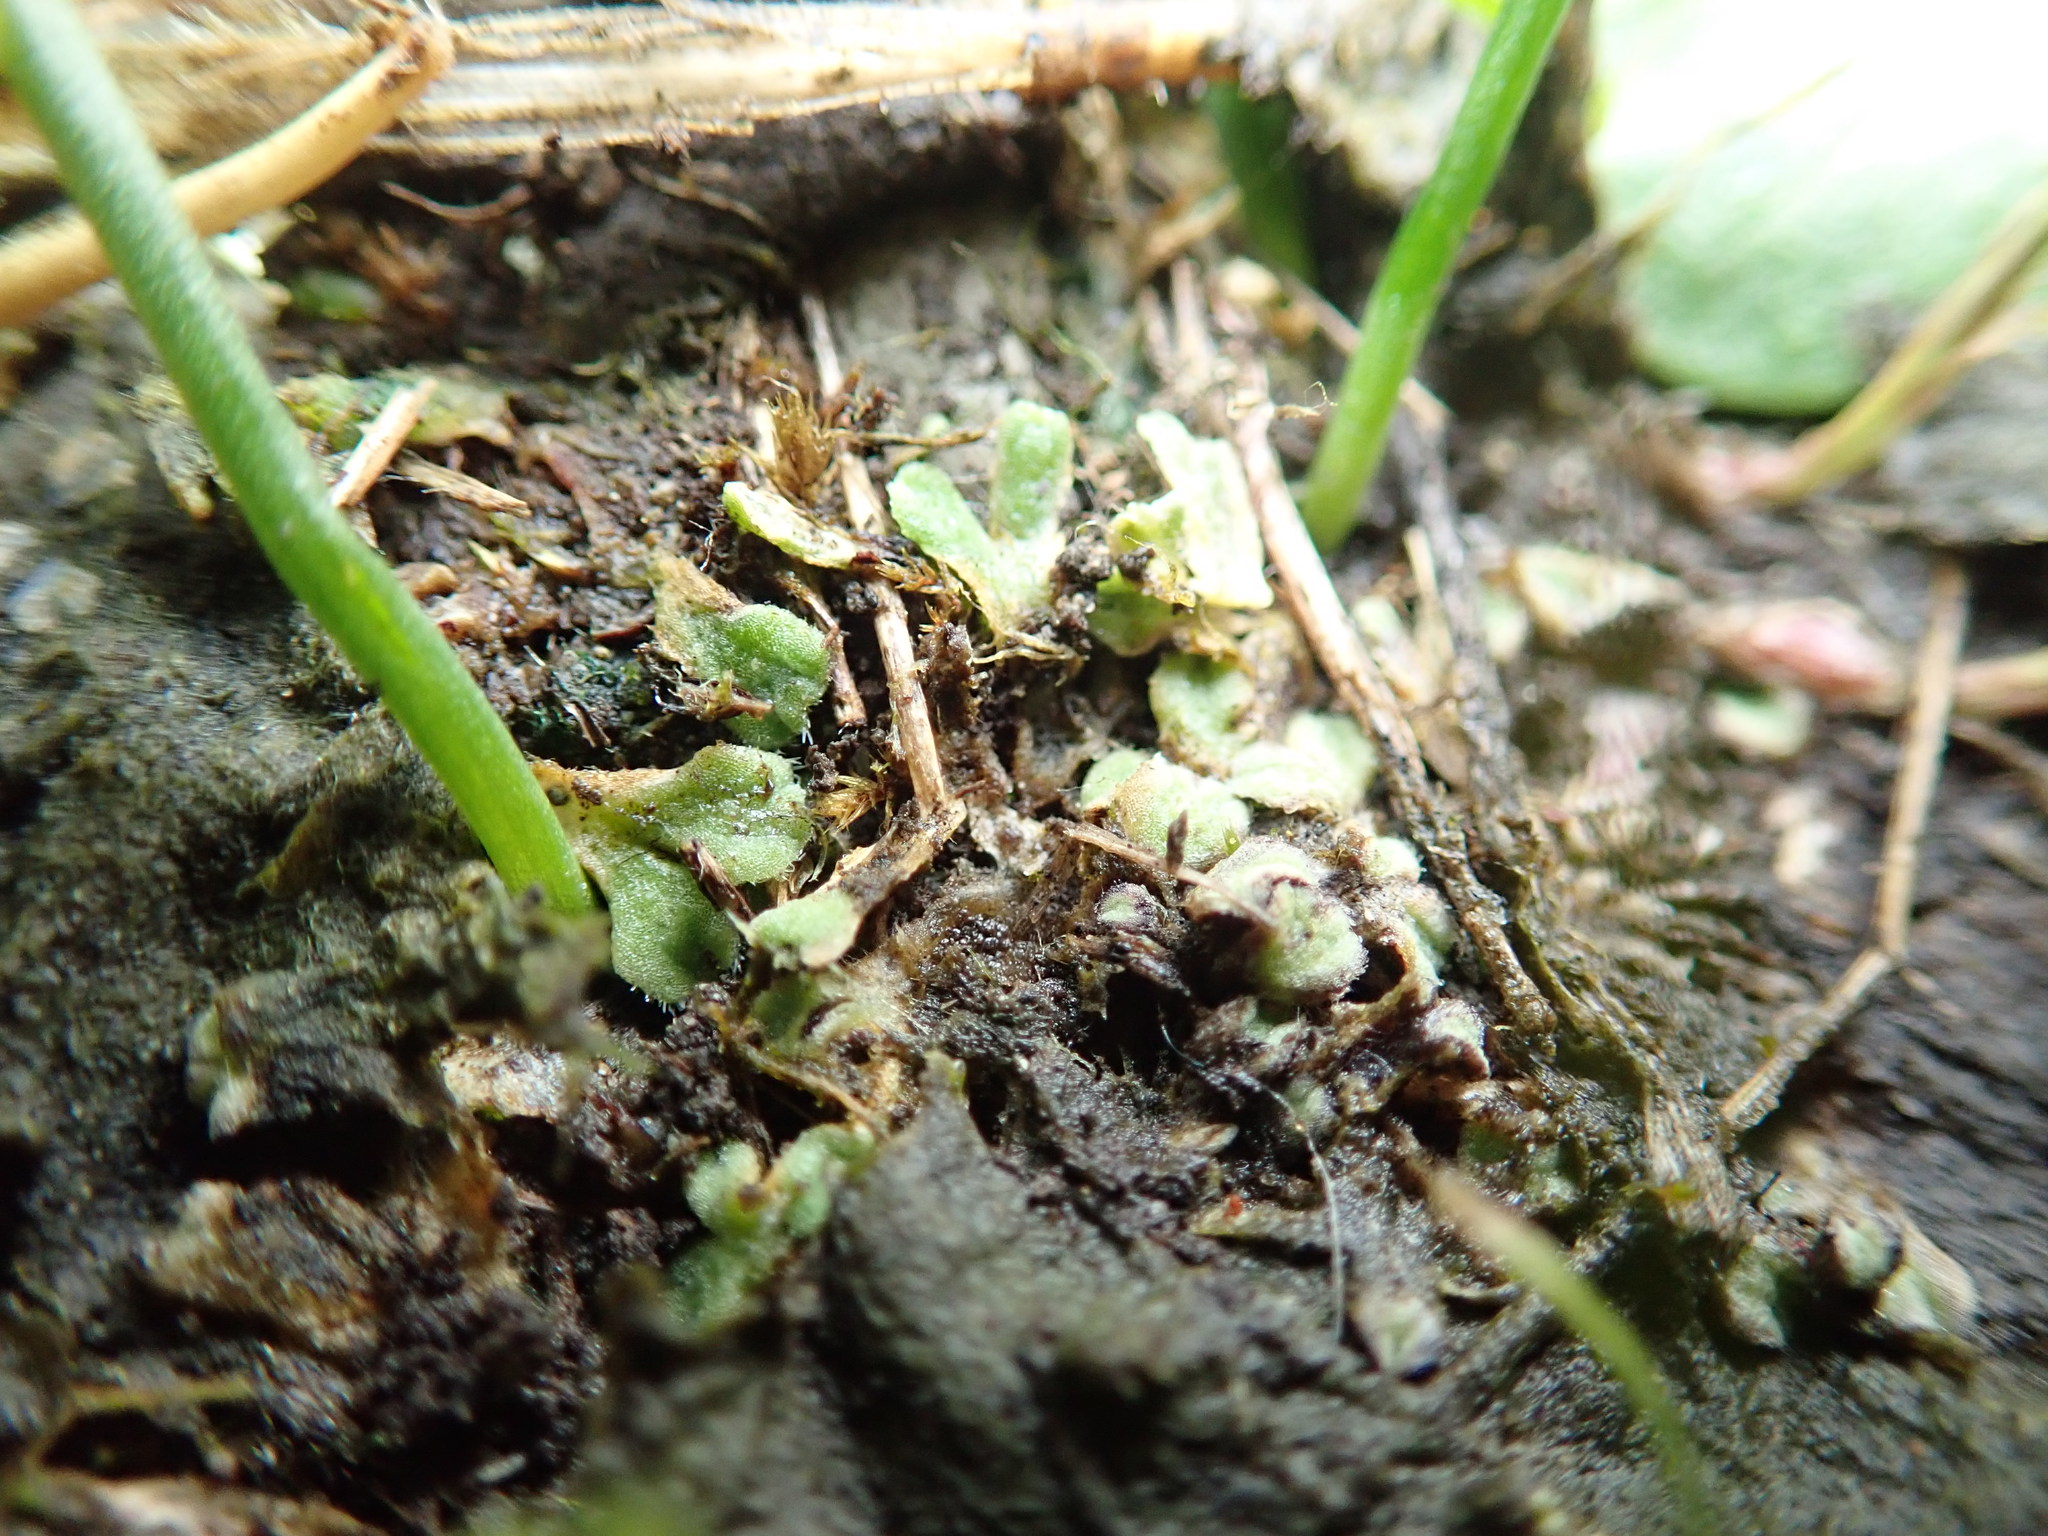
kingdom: Plantae
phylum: Marchantiophyta
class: Marchantiopsida
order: Marchantiales
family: Ricciaceae
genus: Riccia
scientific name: Riccia beyrichiana
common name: Purple crystalwort
